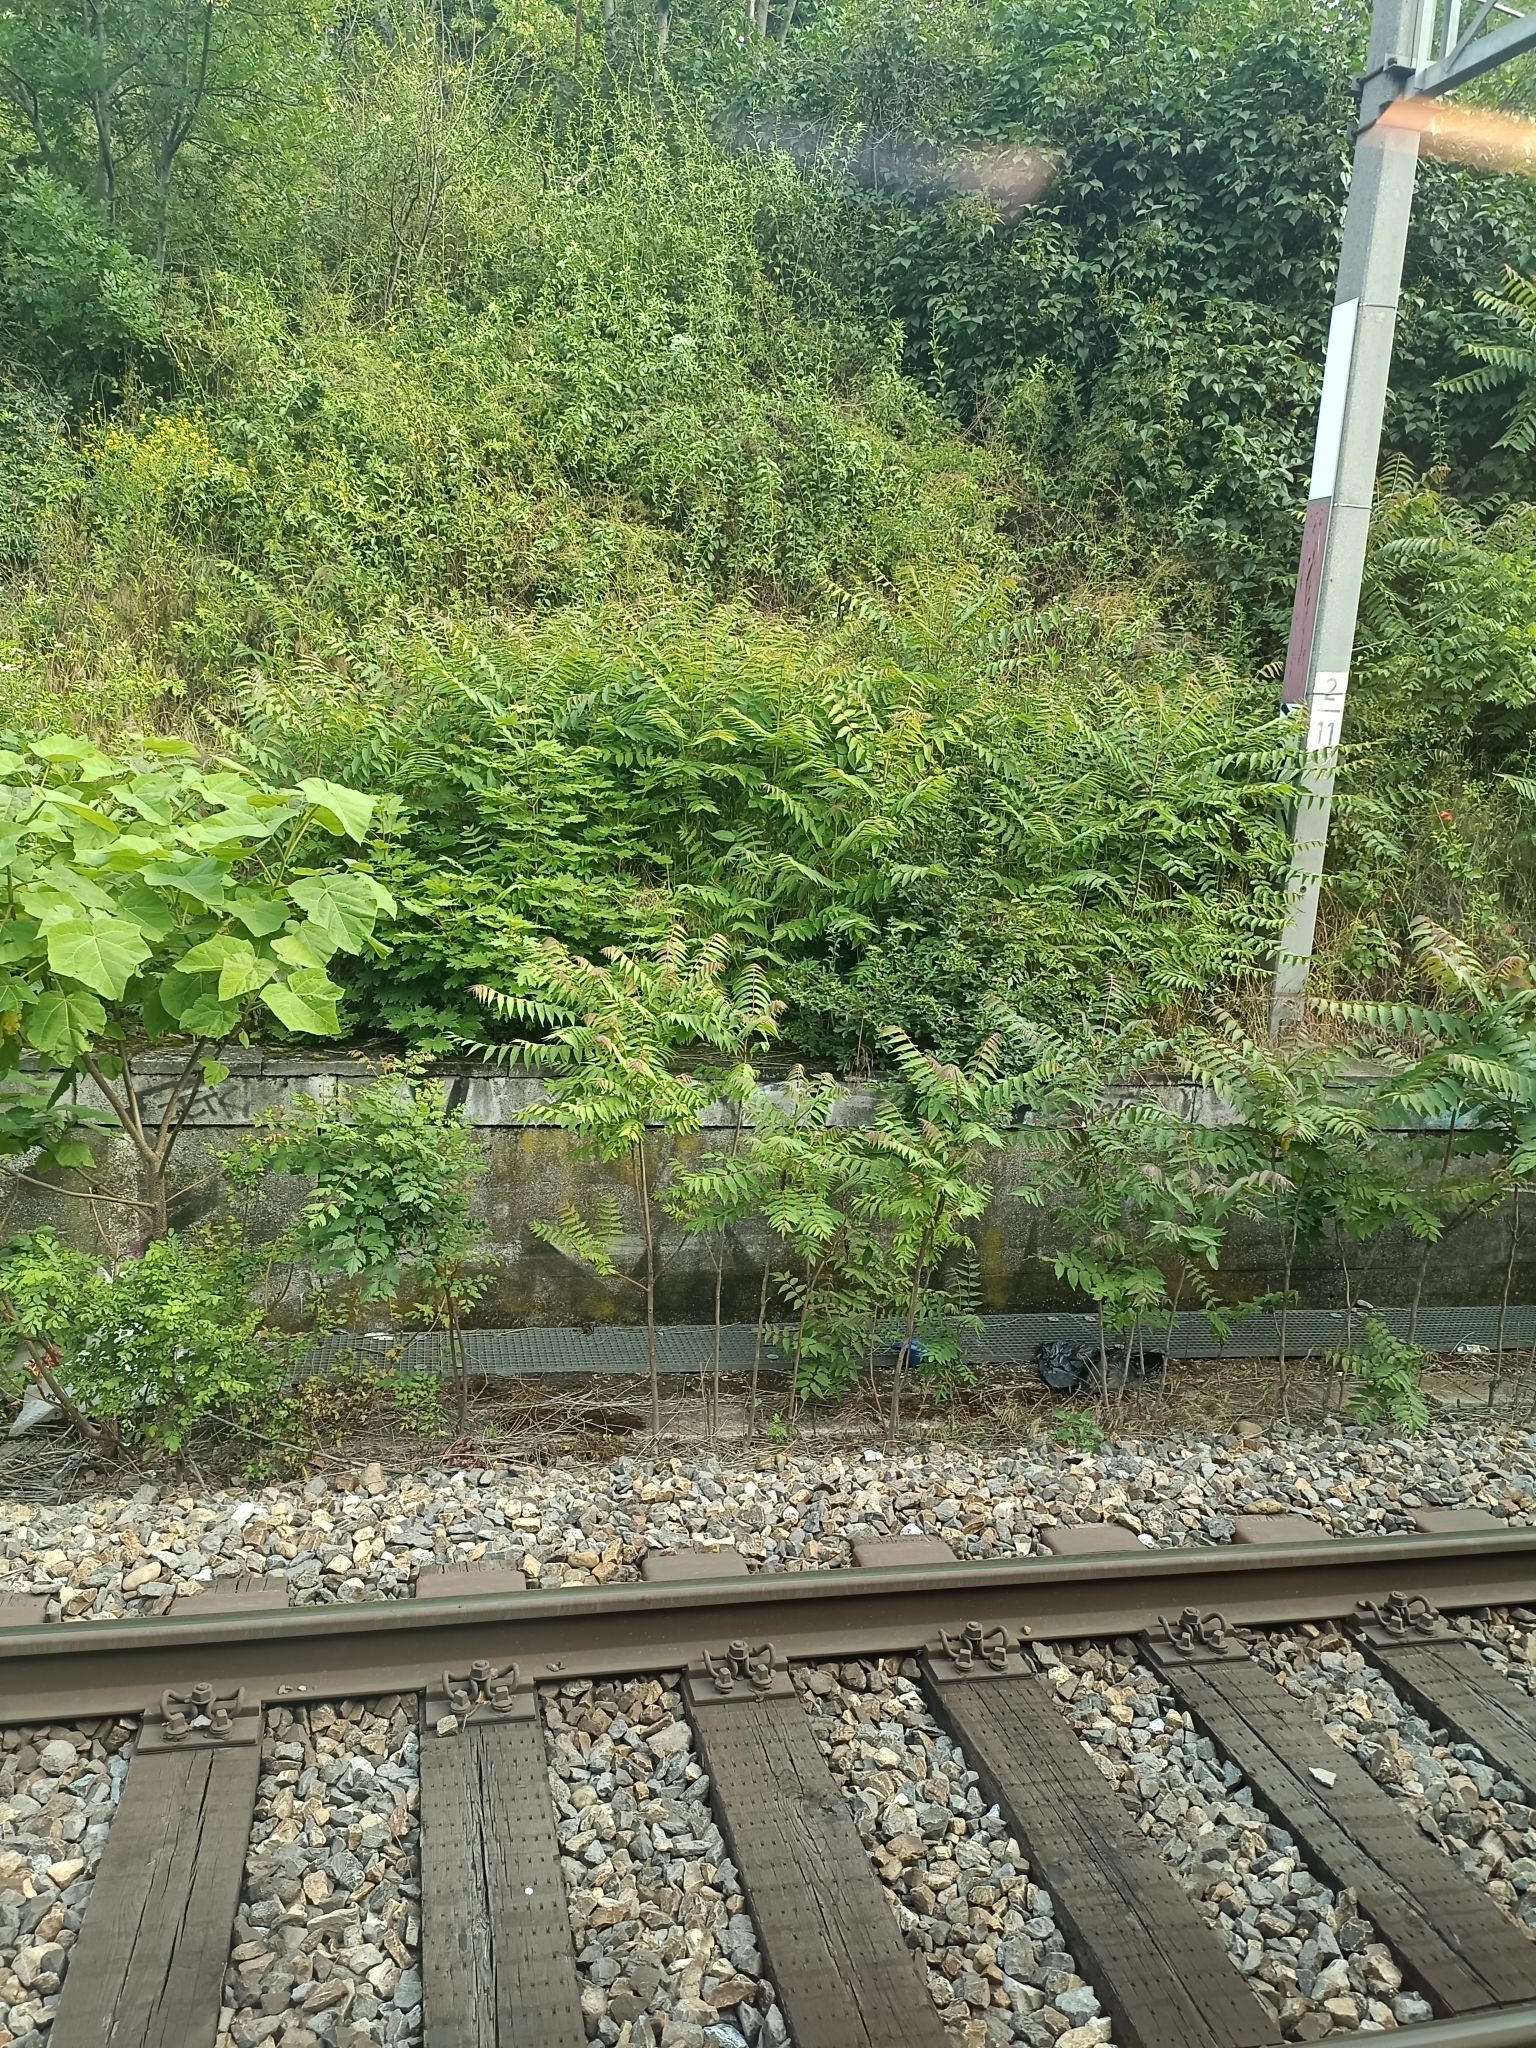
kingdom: Plantae
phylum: Tracheophyta
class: Magnoliopsida
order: Sapindales
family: Simaroubaceae
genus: Ailanthus
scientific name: Ailanthus altissima
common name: Tree-of-heaven
